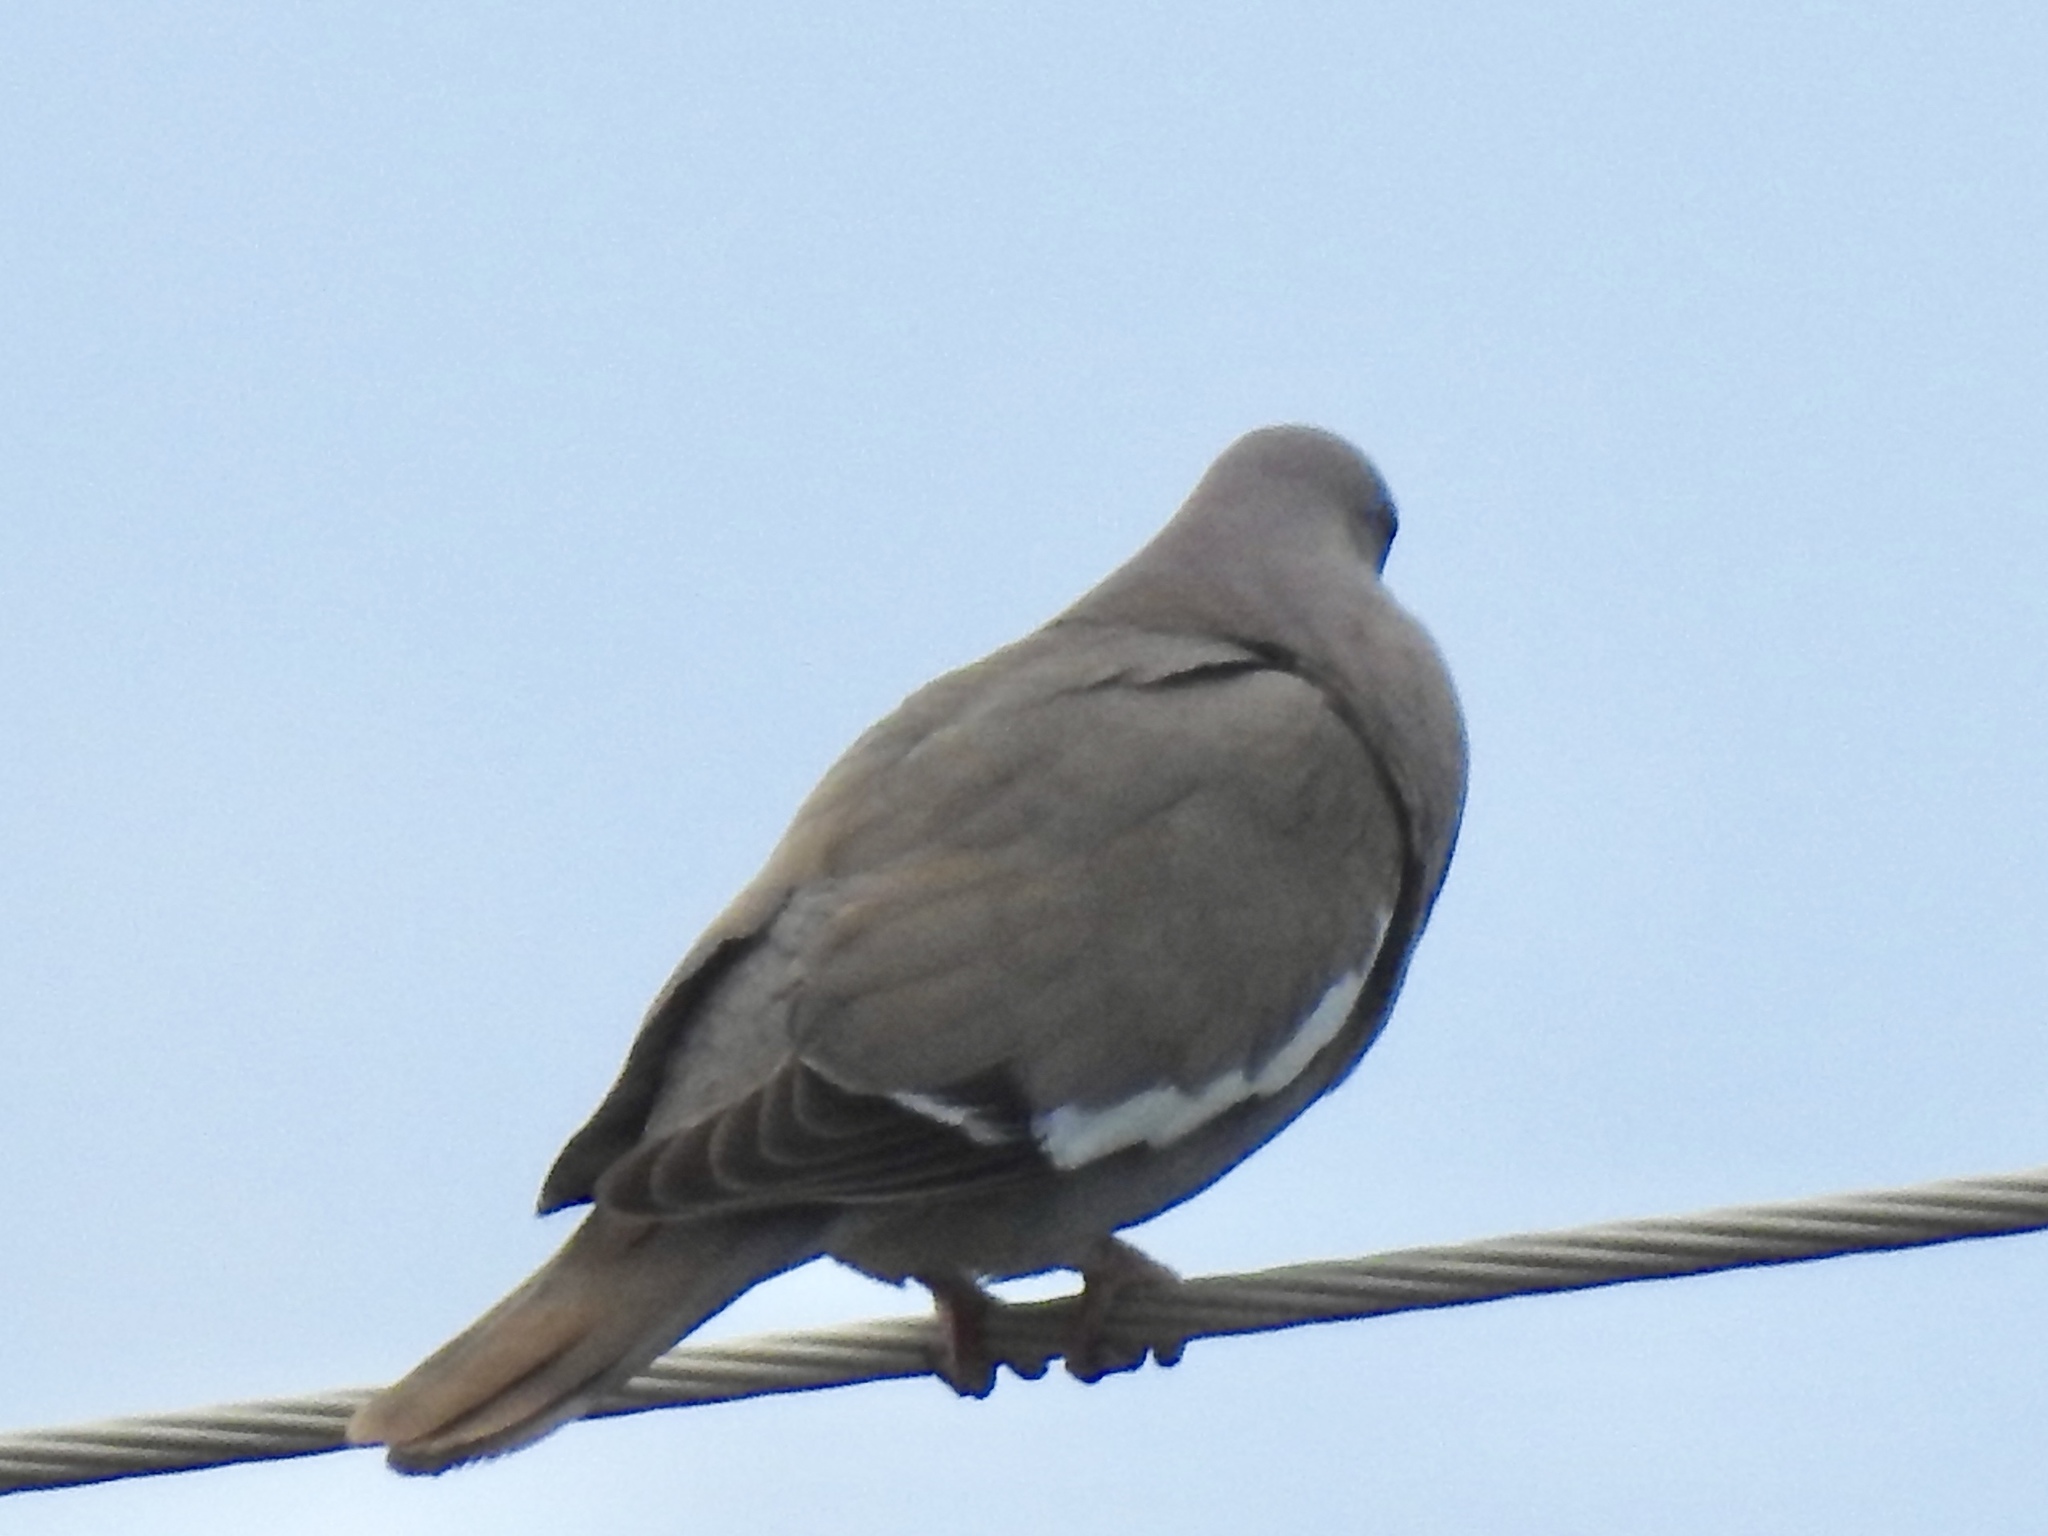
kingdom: Animalia
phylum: Chordata
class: Aves
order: Columbiformes
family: Columbidae
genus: Zenaida
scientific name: Zenaida asiatica
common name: White-winged dove
